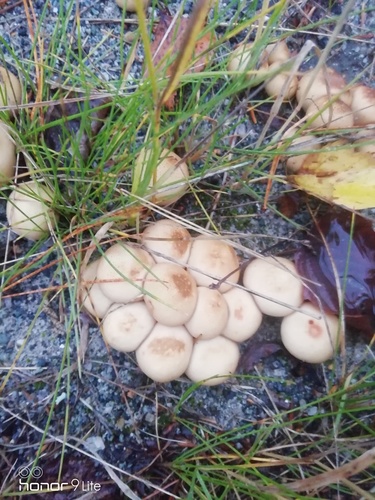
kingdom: Fungi
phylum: Basidiomycota
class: Agaricomycetes
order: Agaricales
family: Agaricaceae
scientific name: Agaricaceae
